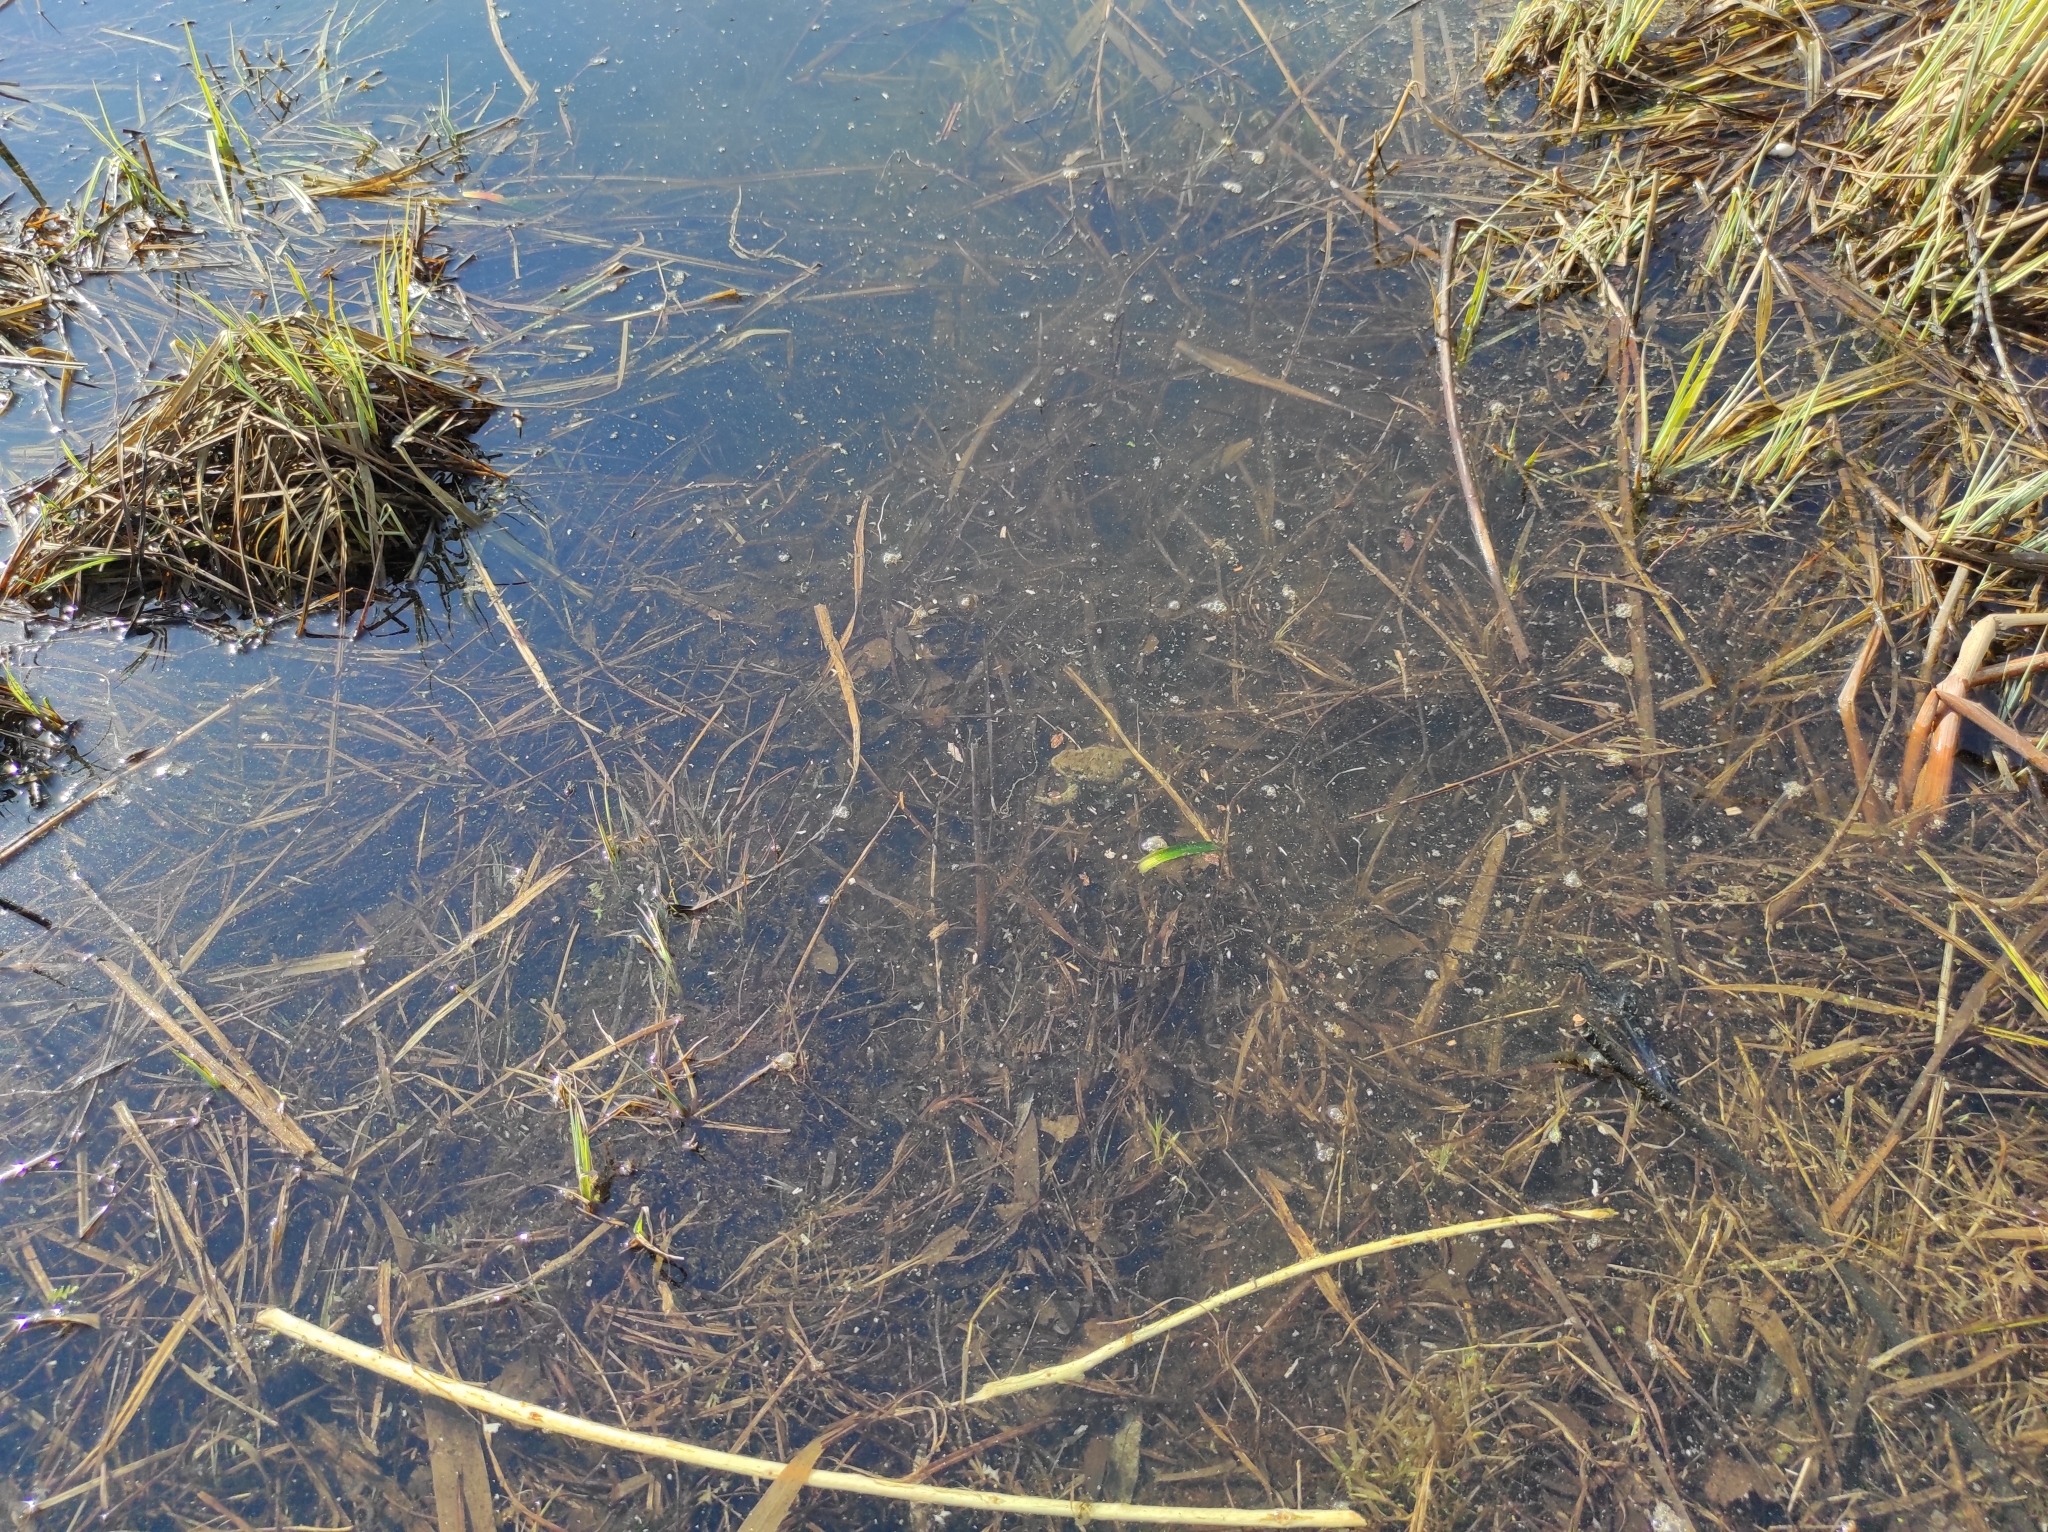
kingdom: Animalia
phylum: Chordata
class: Amphibia
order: Anura
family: Bufonidae
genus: Bufo
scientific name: Bufo bufo
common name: Common toad
